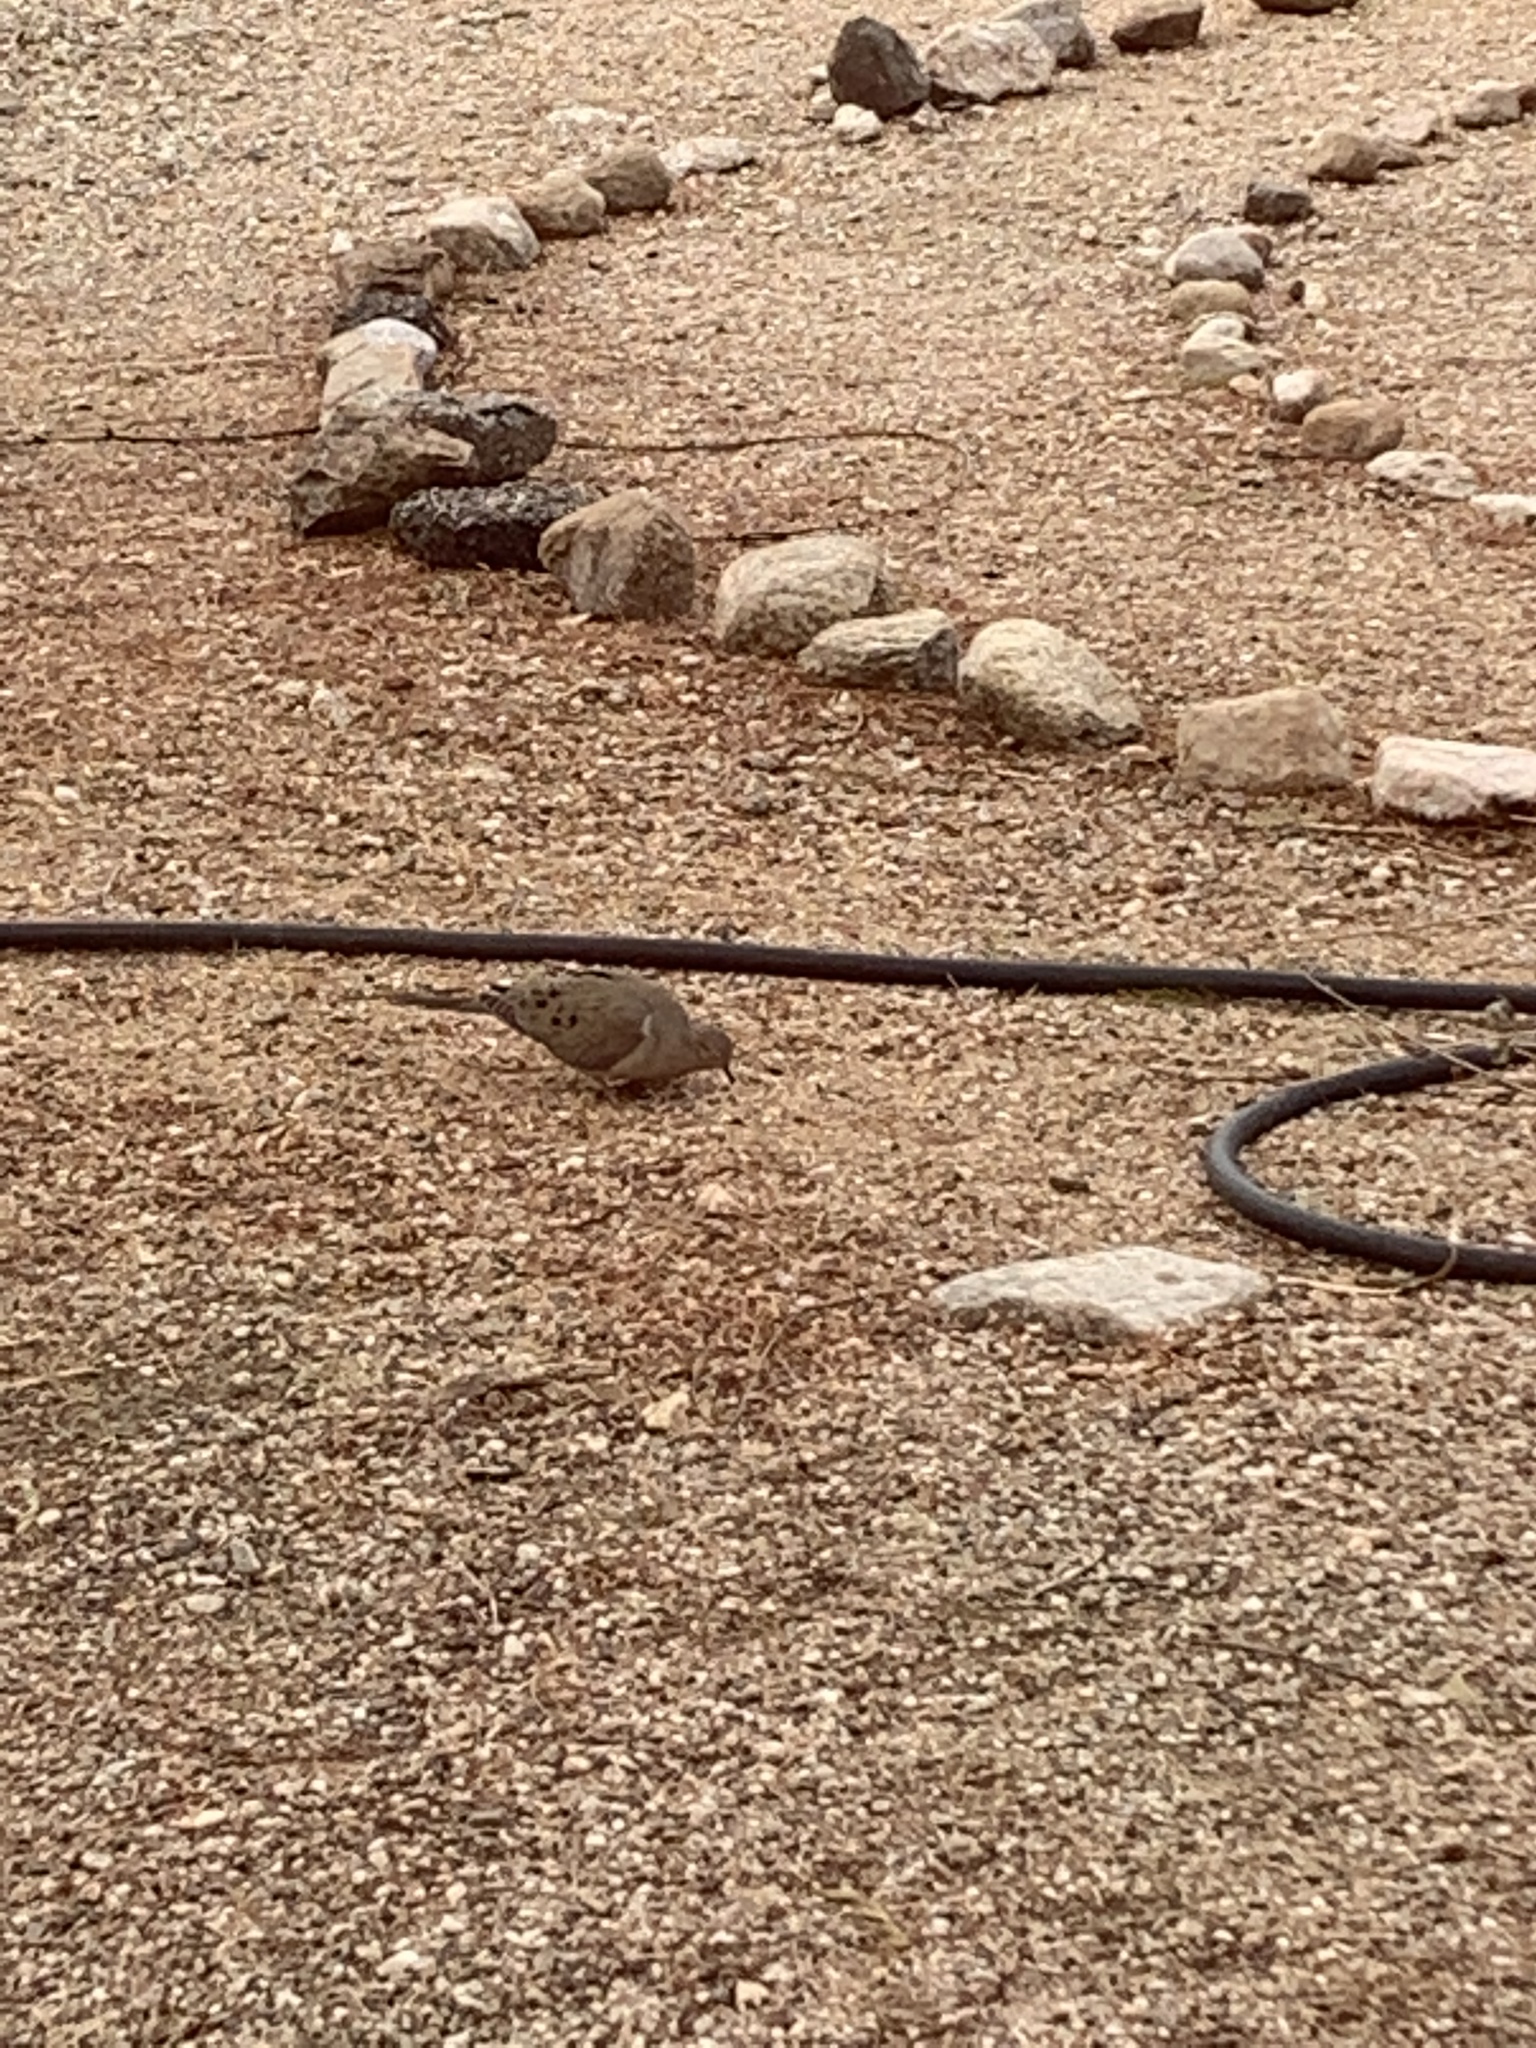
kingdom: Animalia
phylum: Chordata
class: Aves
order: Columbiformes
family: Columbidae
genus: Zenaida
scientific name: Zenaida macroura
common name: Mourning dove
